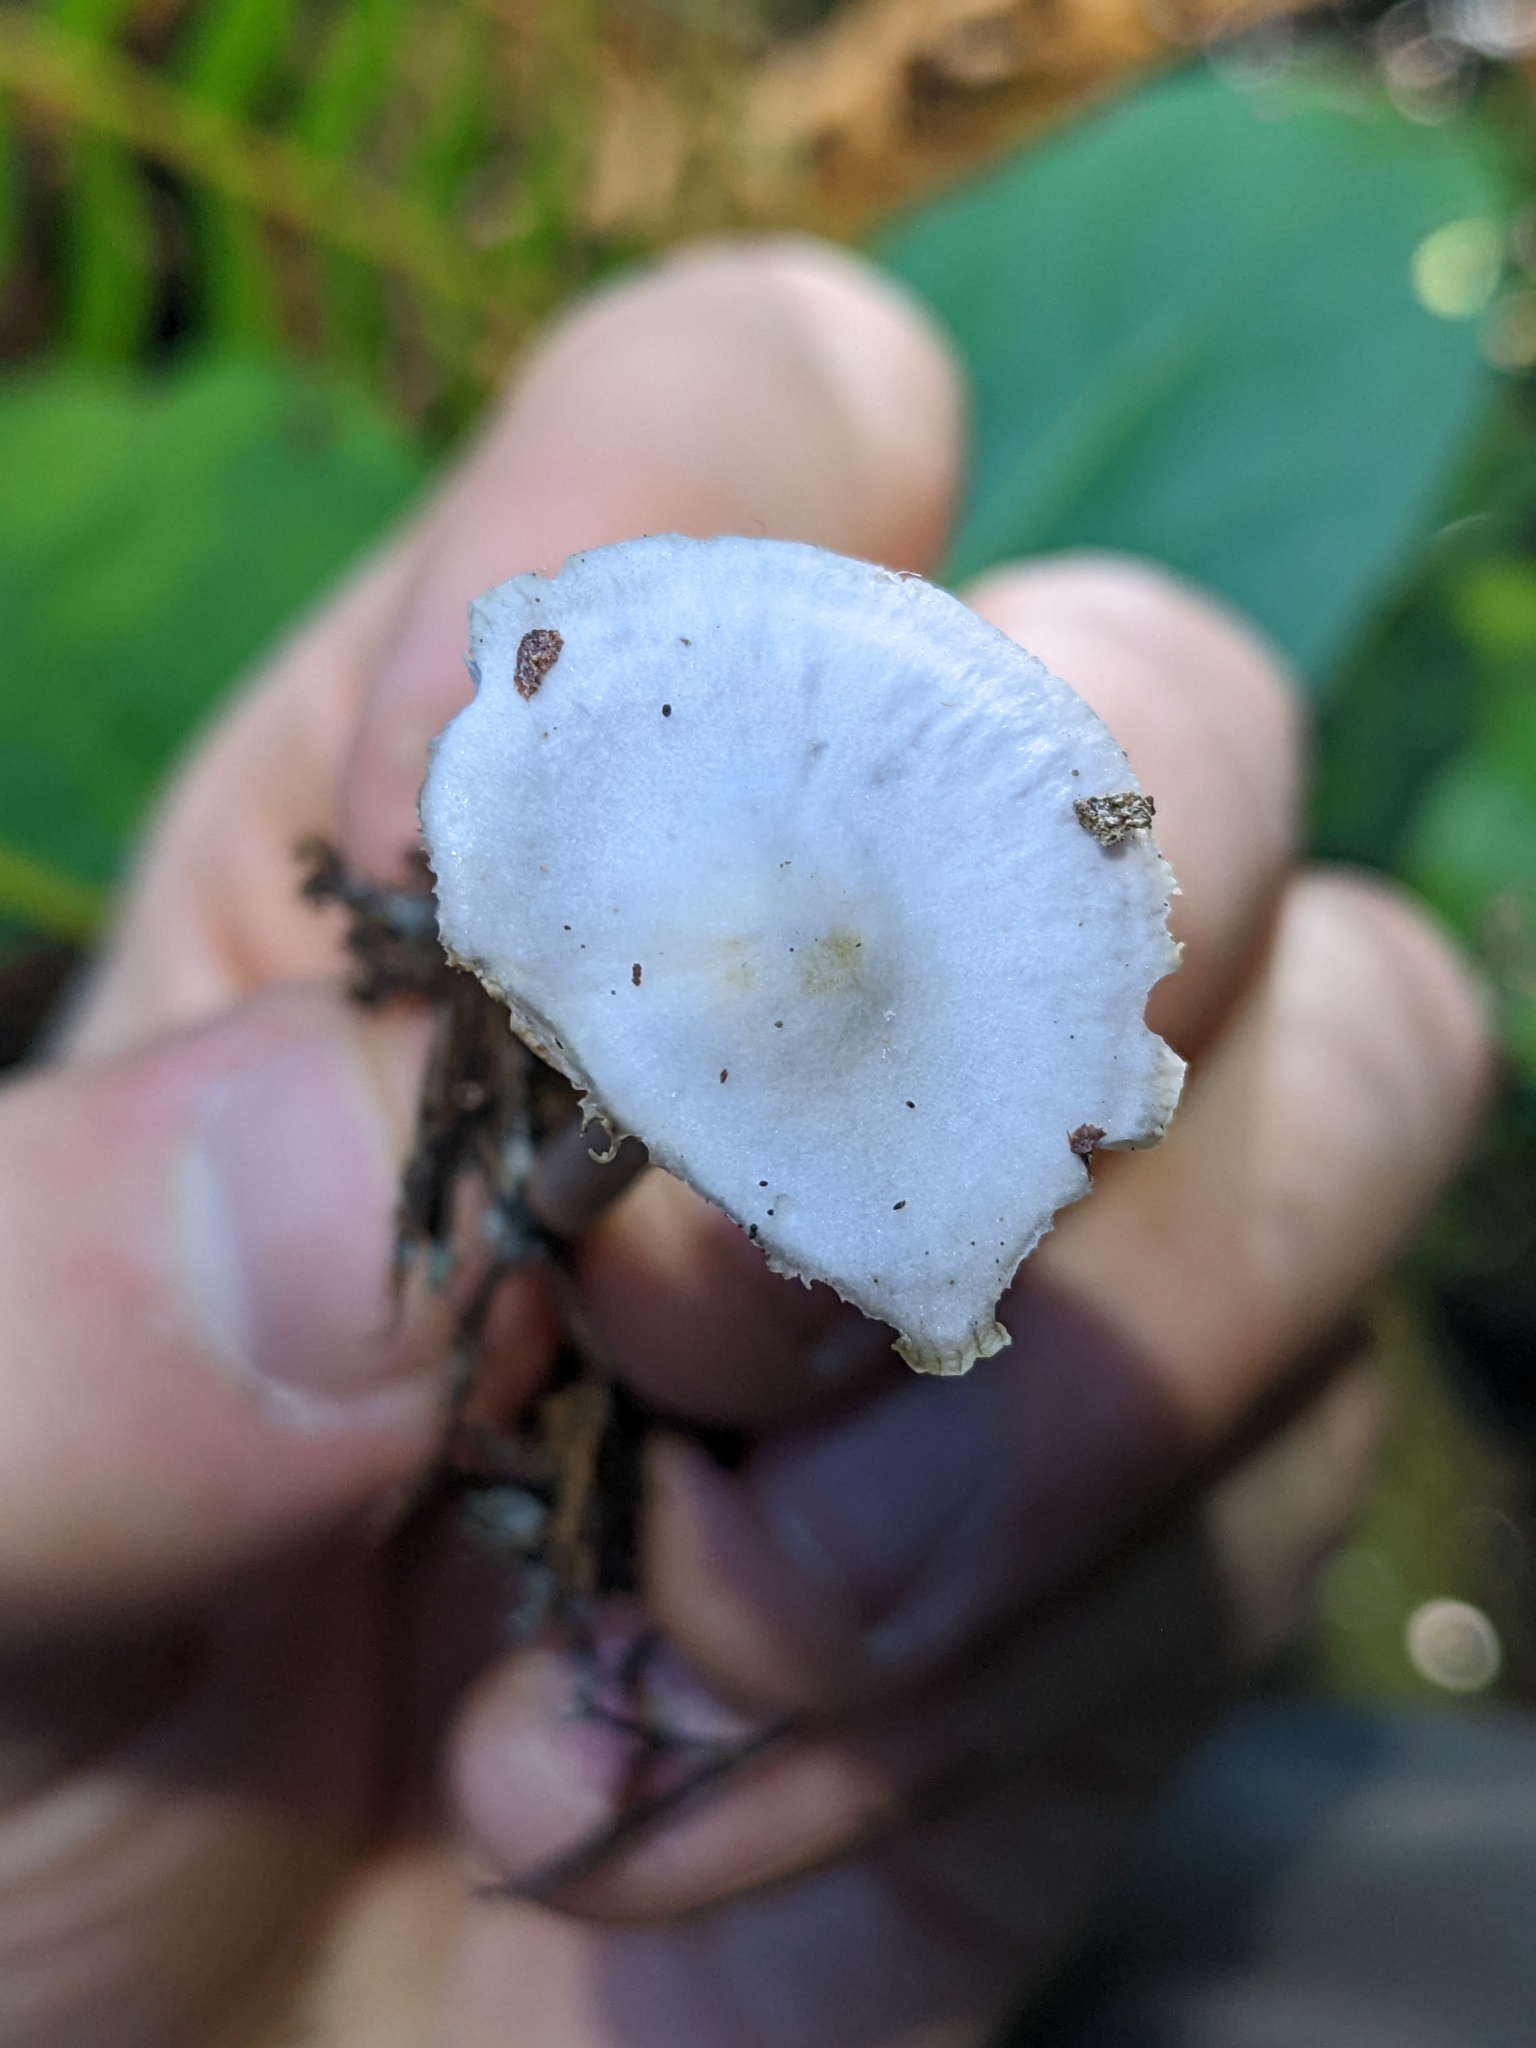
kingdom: Fungi
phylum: Basidiomycota
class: Agaricomycetes
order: Agaricales
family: Mycenaceae
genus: Mycena
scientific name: Mycena pura
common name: Lilac bonnet
